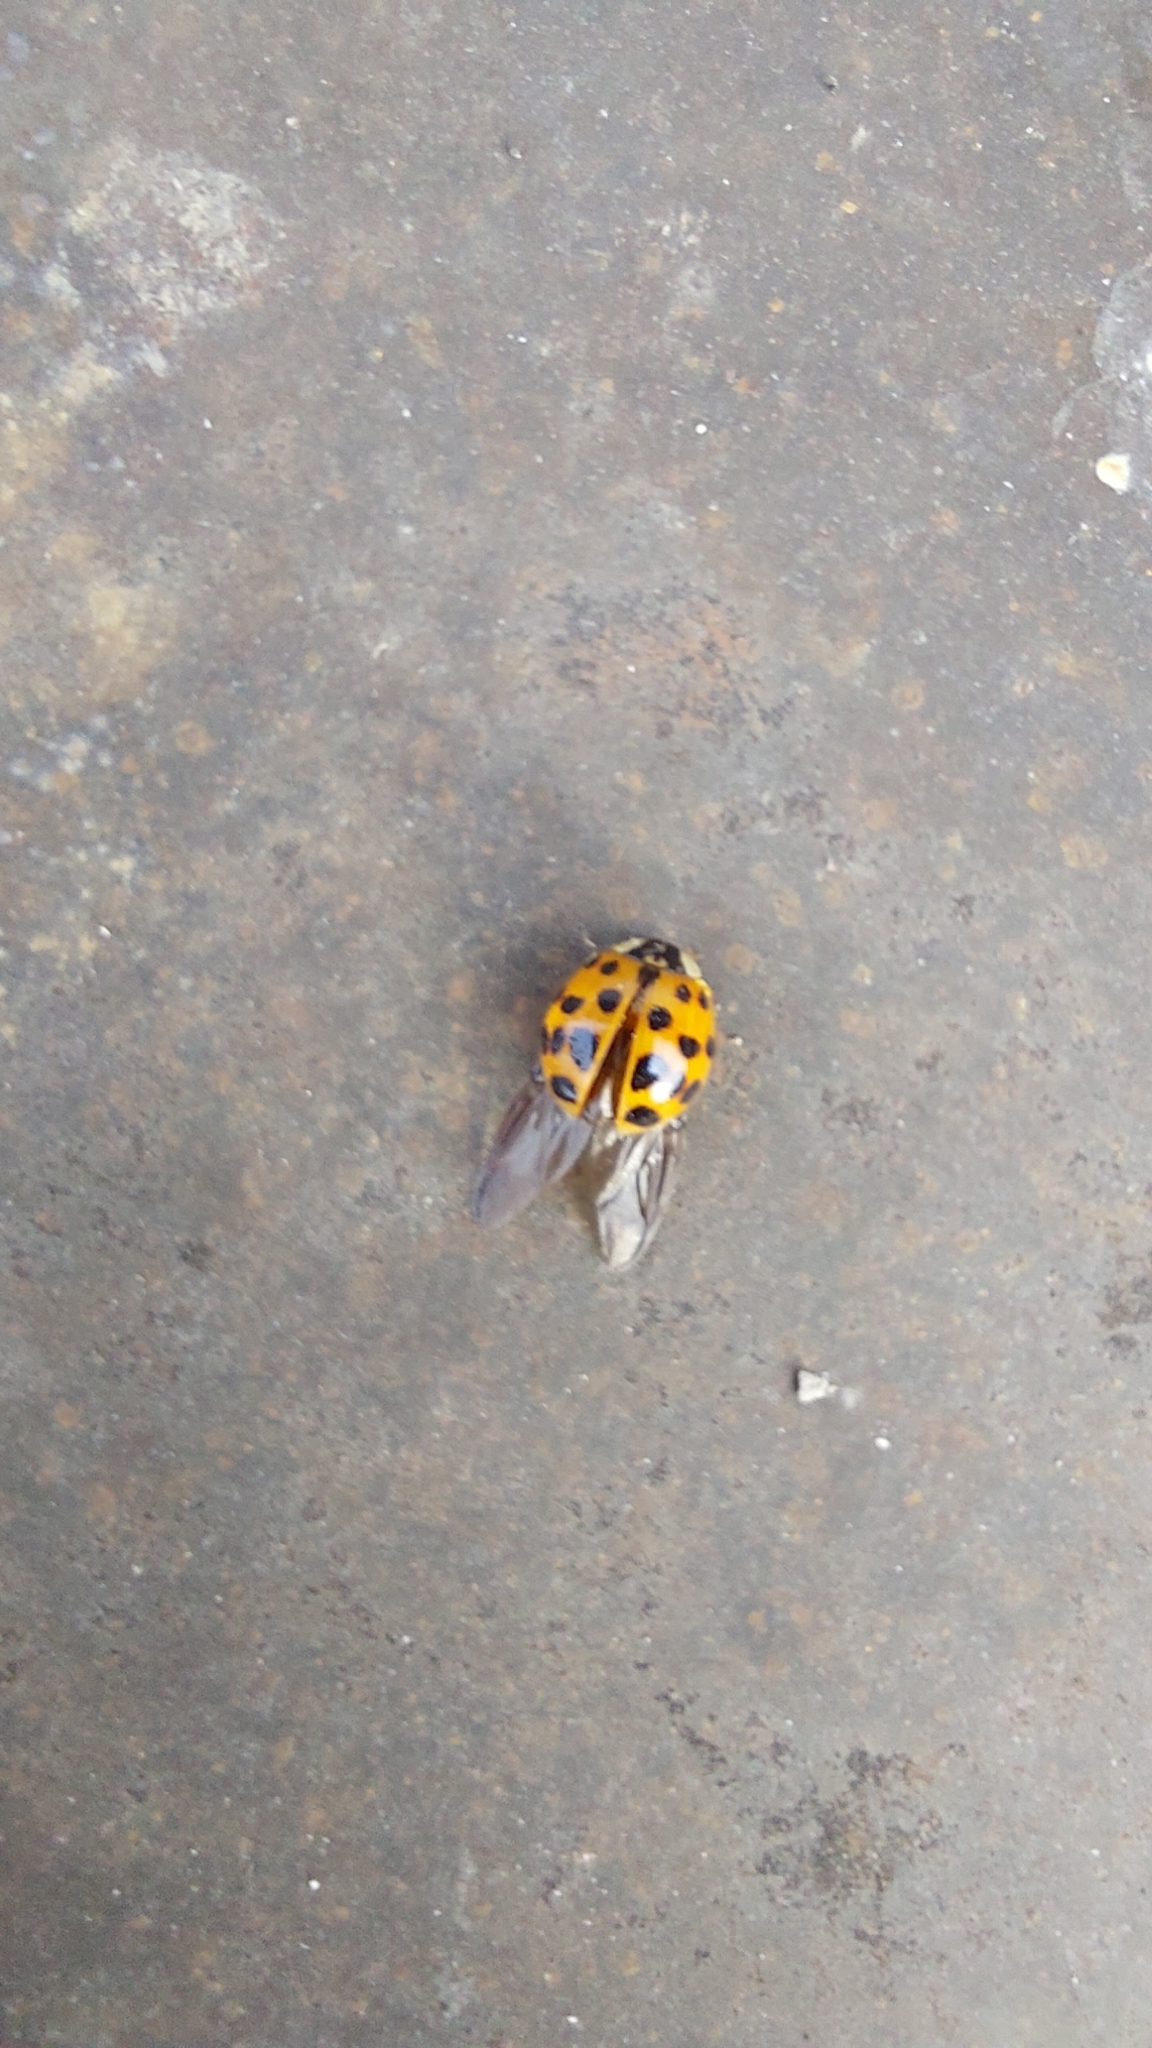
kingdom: Animalia
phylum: Arthropoda
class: Insecta
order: Coleoptera
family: Coccinellidae
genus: Harmonia
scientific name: Harmonia axyridis
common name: Harlequin ladybird
